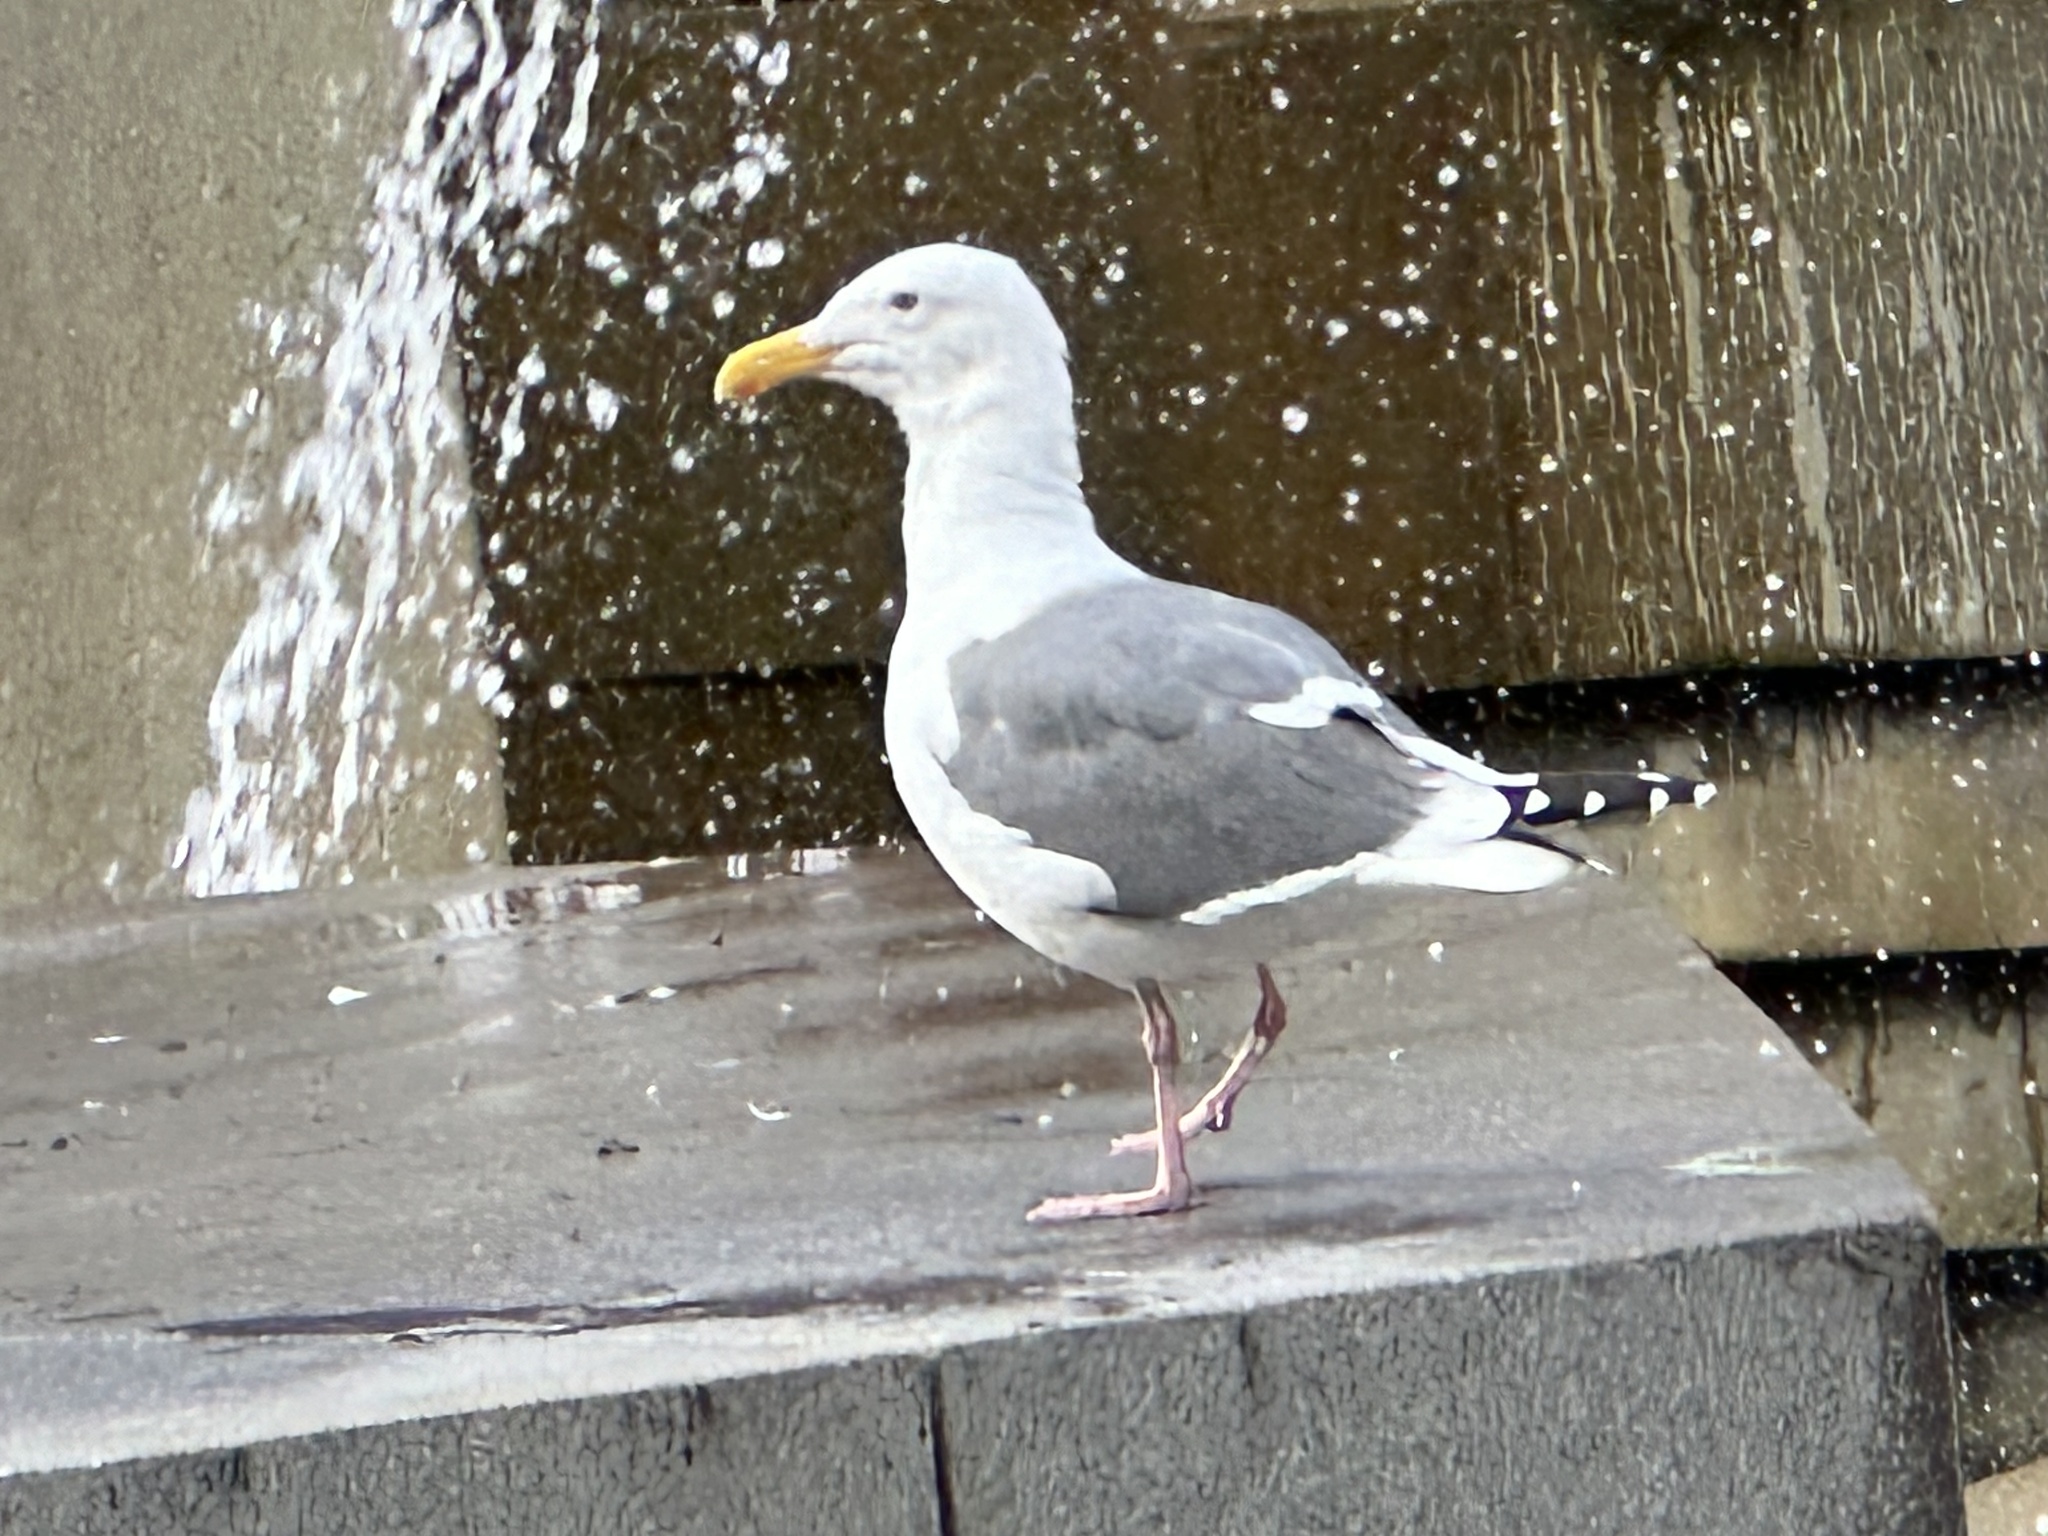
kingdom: Animalia
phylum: Chordata
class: Aves
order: Charadriiformes
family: Laridae
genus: Larus
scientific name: Larus occidentalis
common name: Western gull
